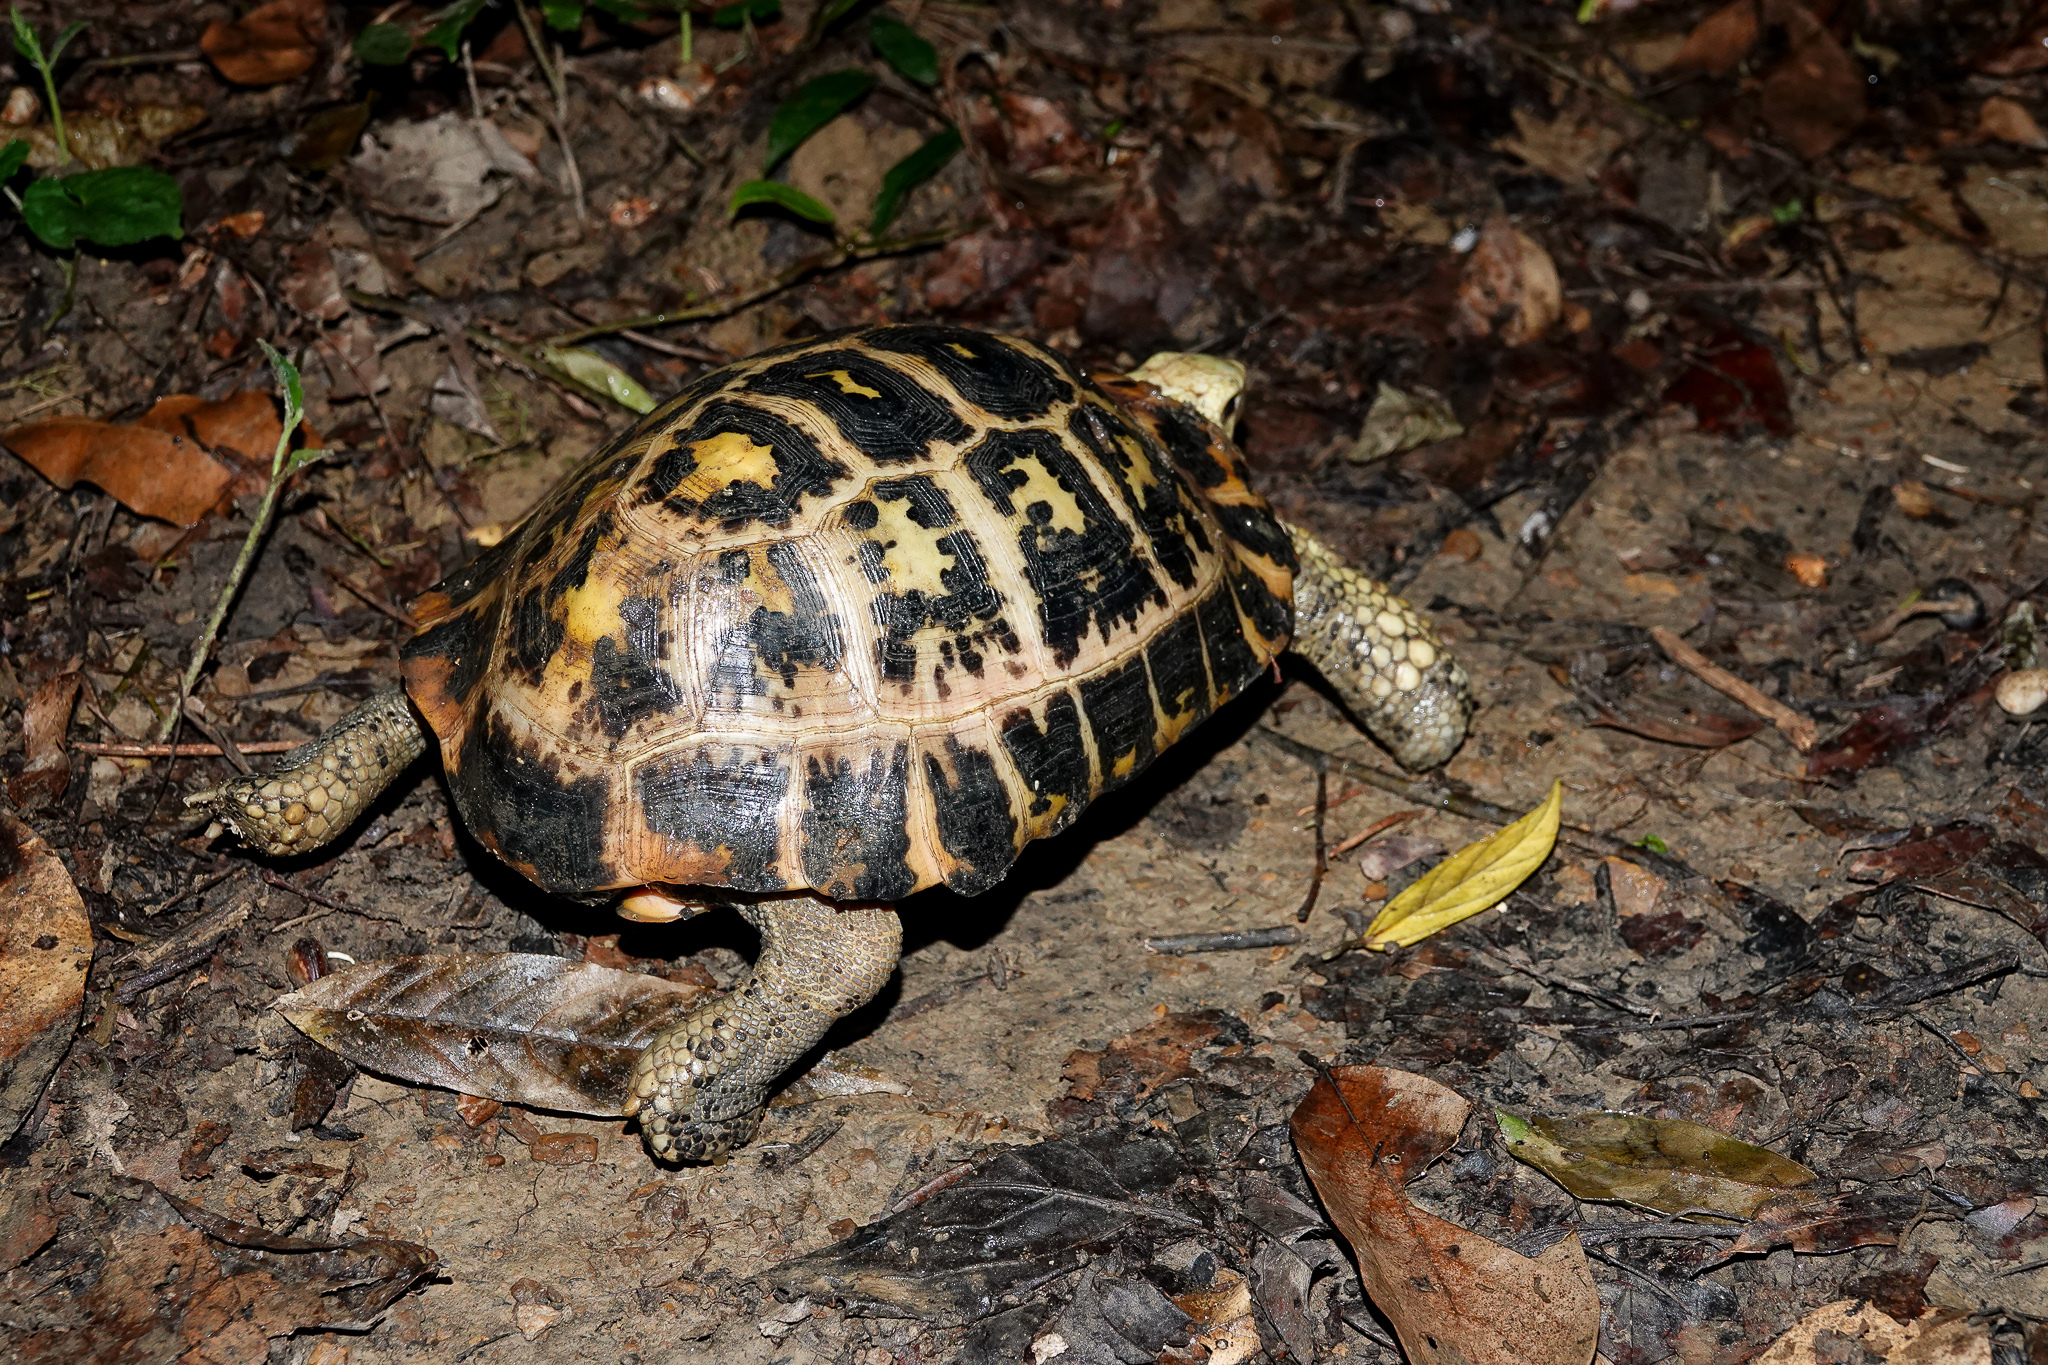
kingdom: Animalia
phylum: Chordata
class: Testudines
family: Testudinidae
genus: Indotestudo
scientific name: Indotestudo elongata
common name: Elongated tortoise
